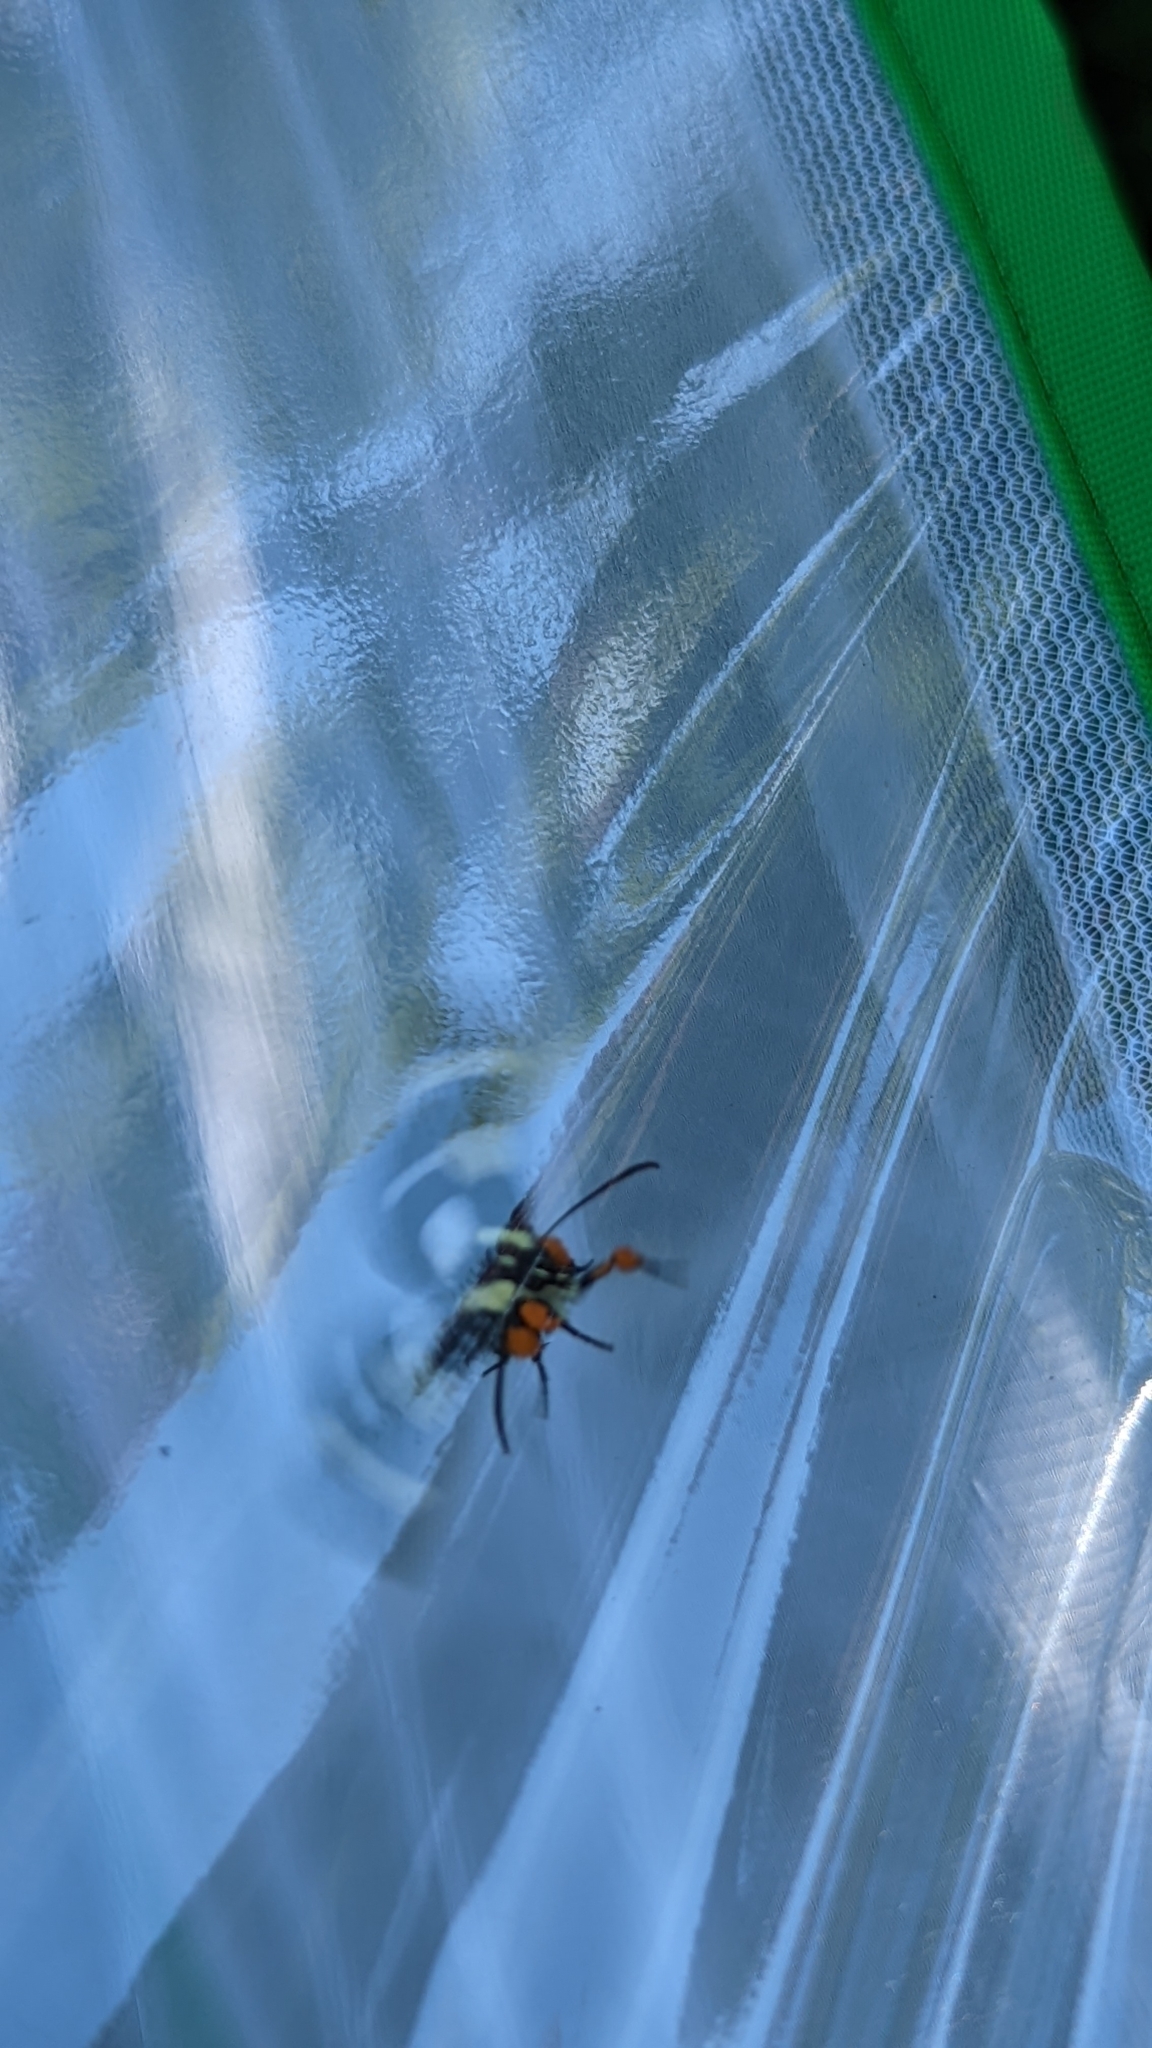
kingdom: Animalia
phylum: Arthropoda
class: Insecta
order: Lepidoptera
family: Noctuidae
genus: Alypia
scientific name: Alypia octomaculata
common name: Eight-spotted forester
